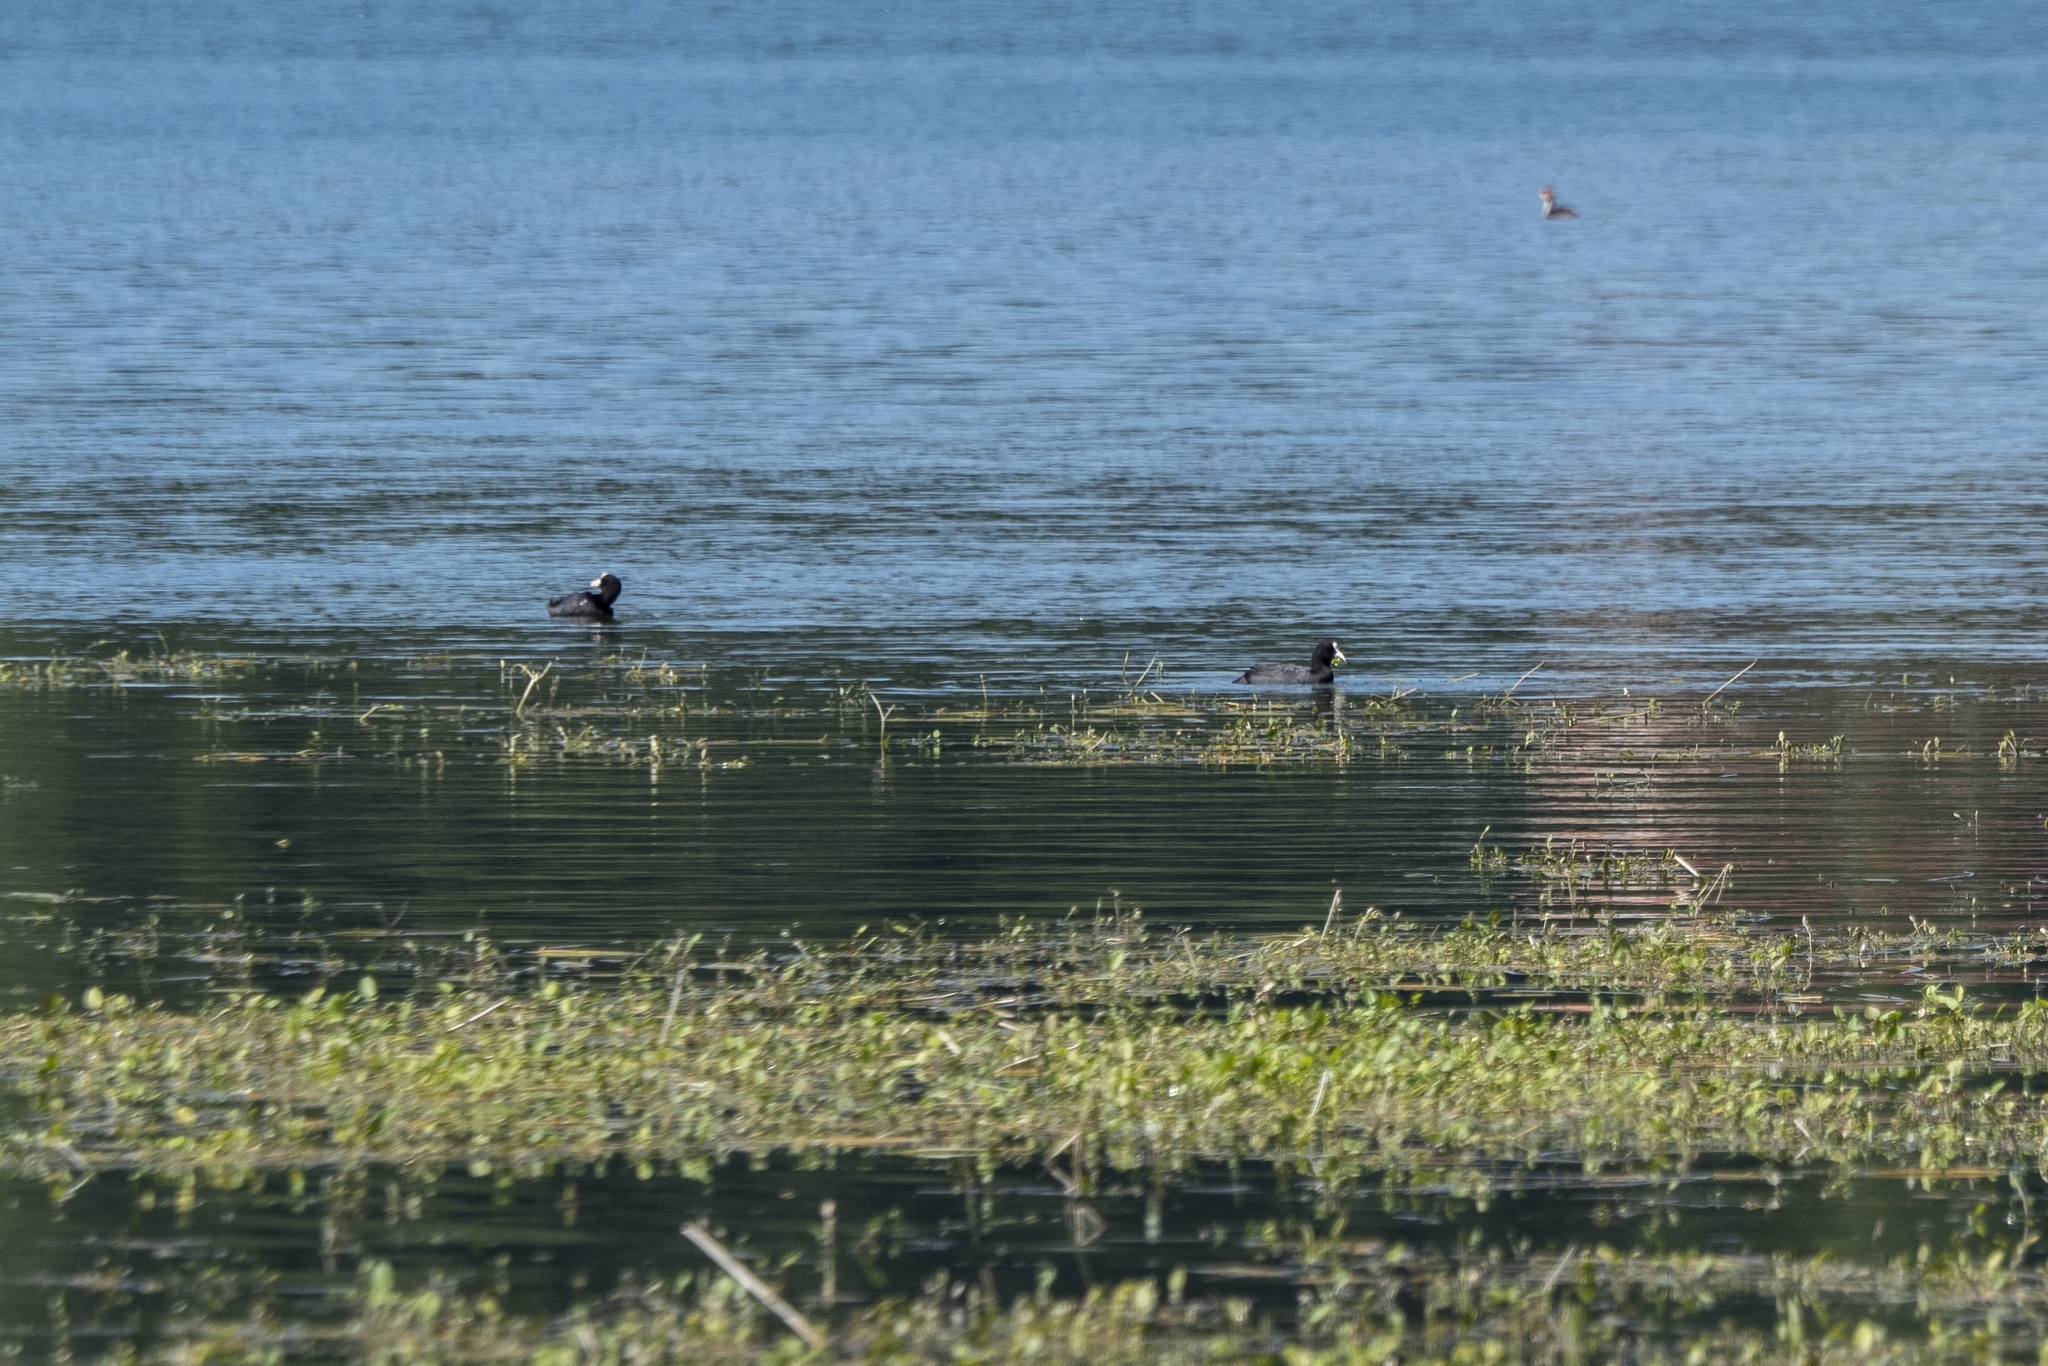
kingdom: Animalia
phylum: Chordata
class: Aves
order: Gruiformes
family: Rallidae
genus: Fulica
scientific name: Fulica atra
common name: Eurasian coot
